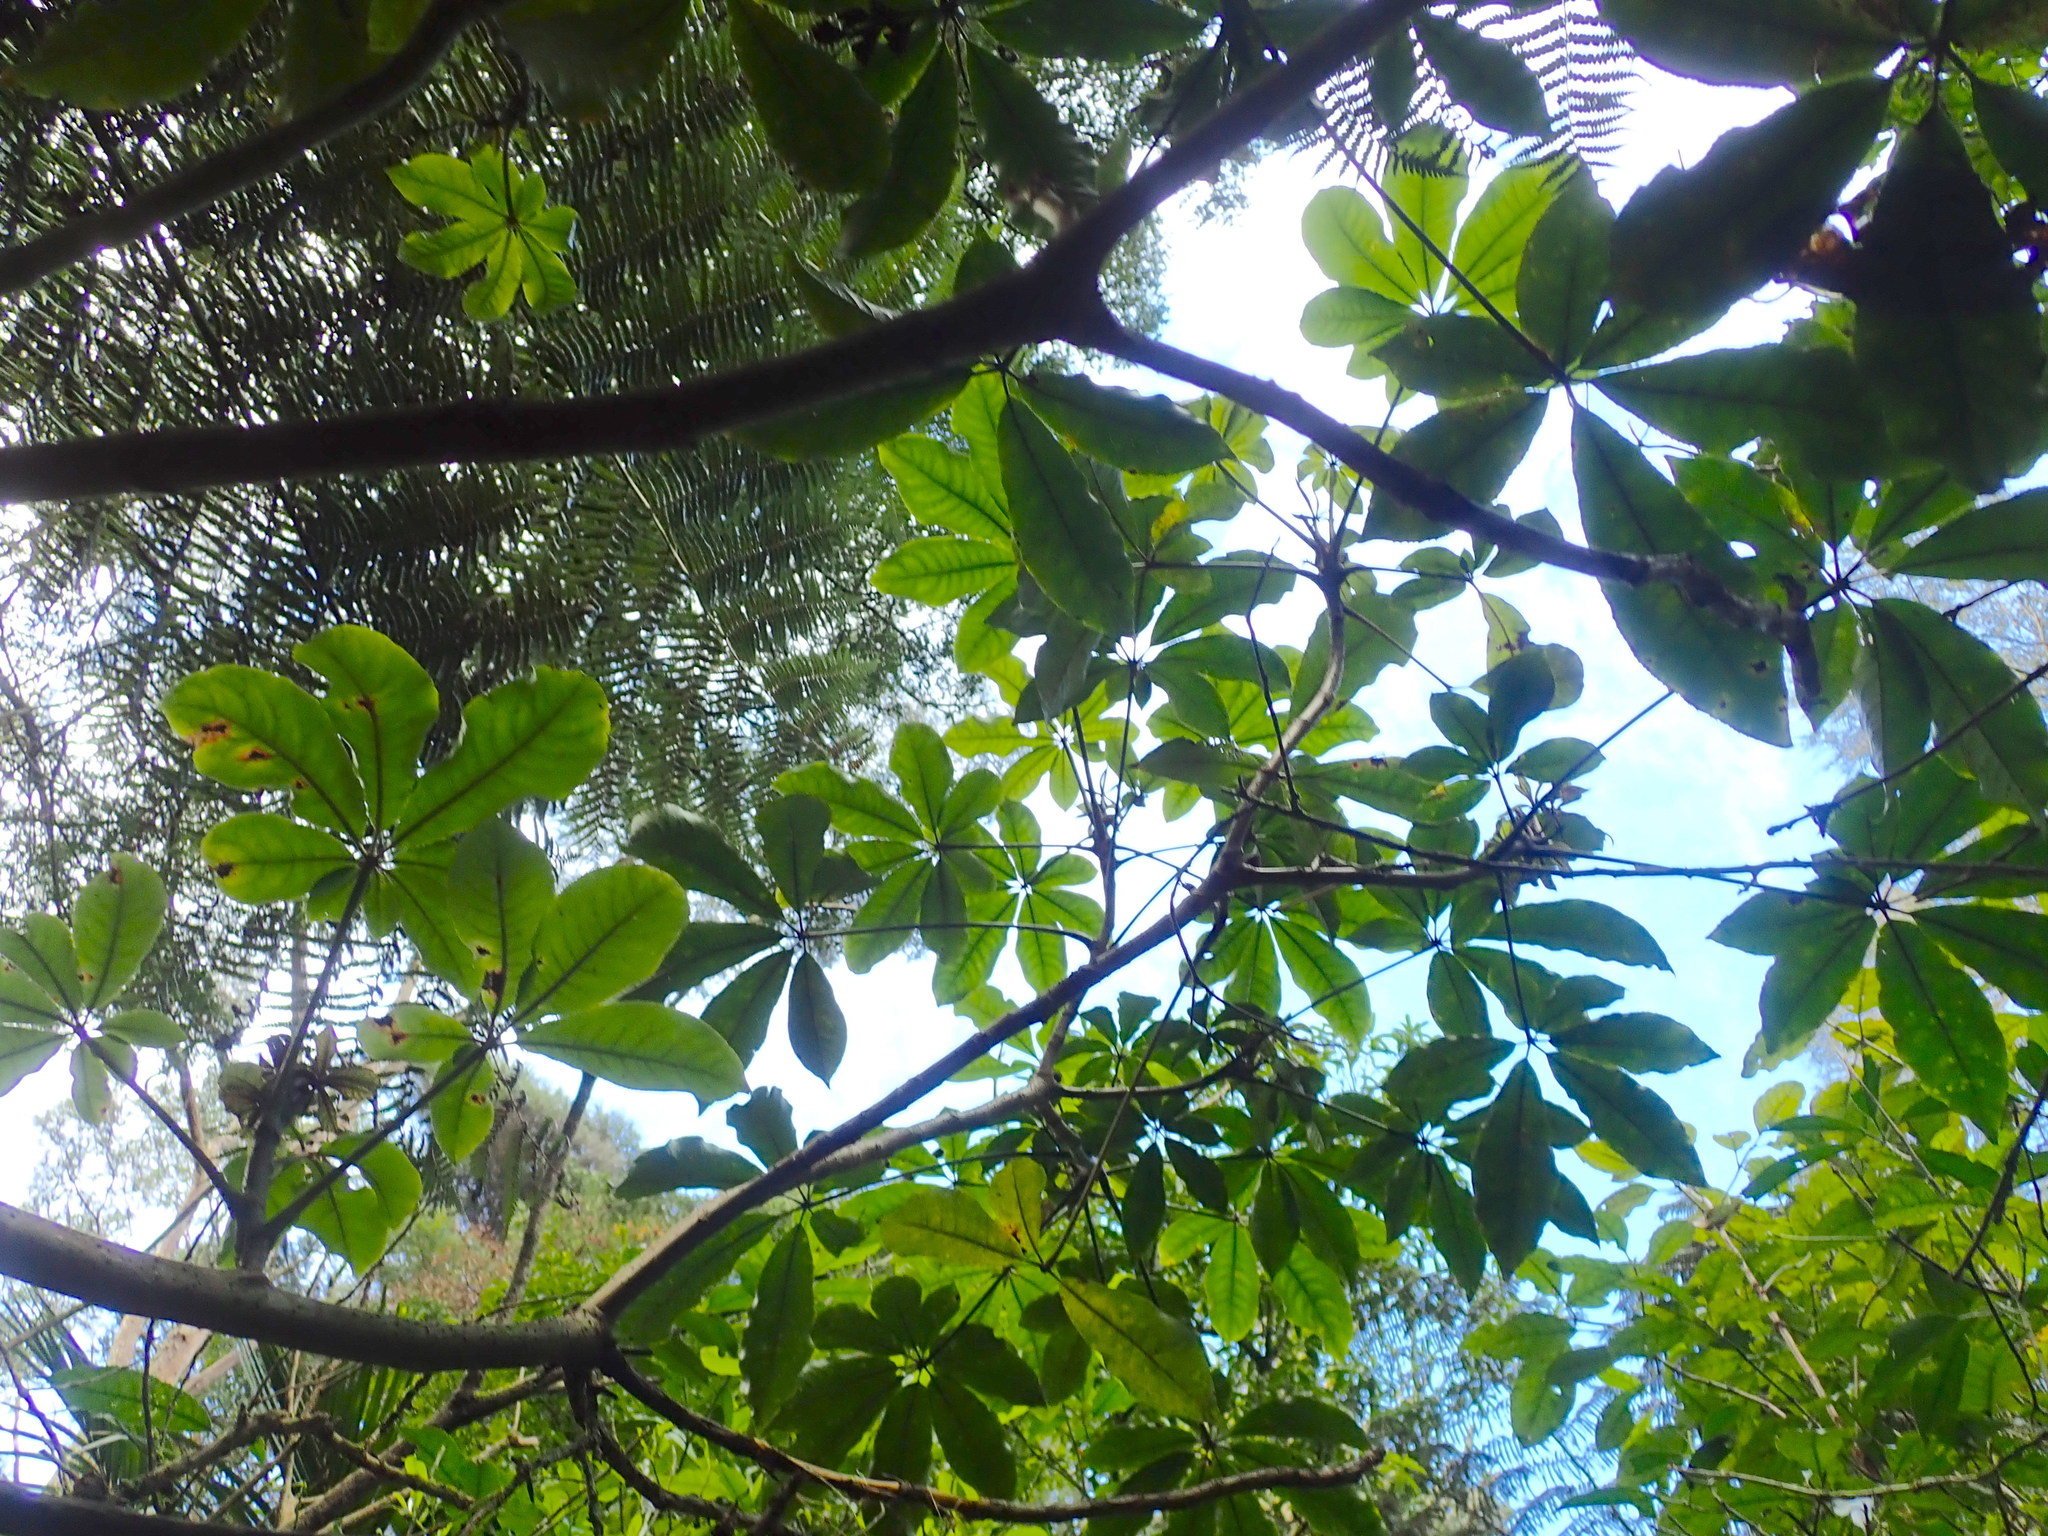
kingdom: Plantae
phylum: Tracheophyta
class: Magnoliopsida
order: Apiales
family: Araliaceae
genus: Schefflera
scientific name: Schefflera digitata
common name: Pate
